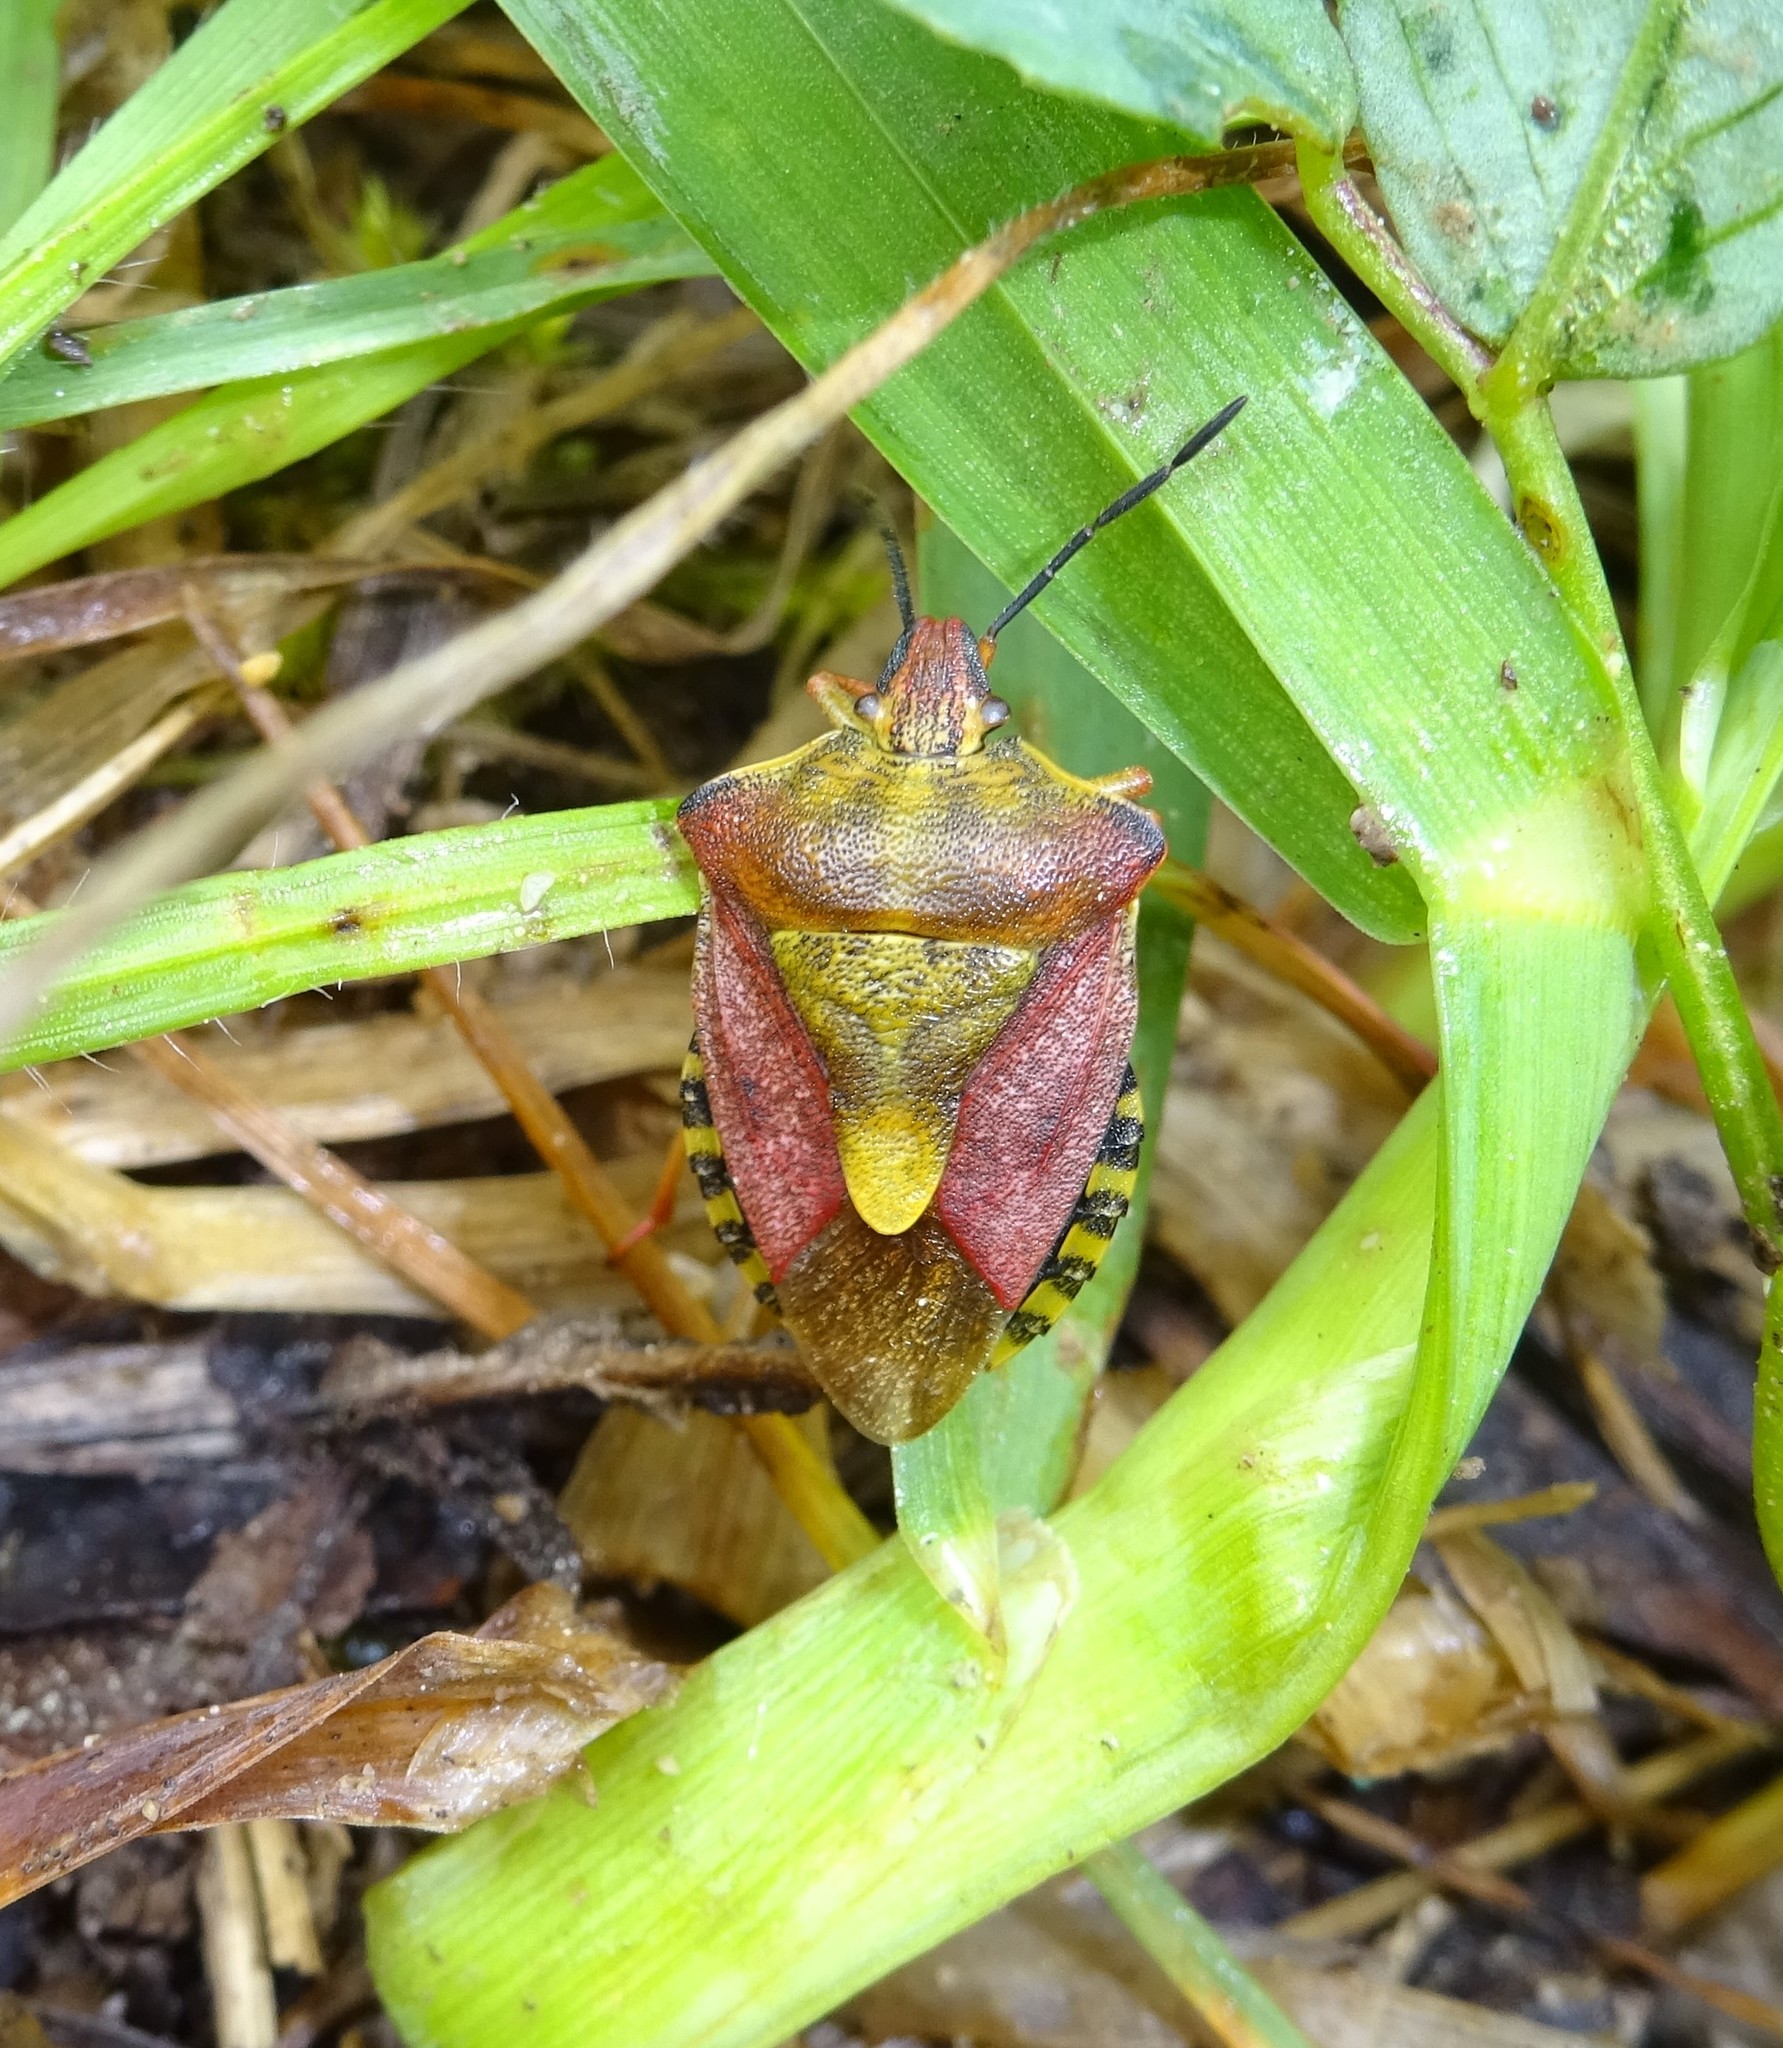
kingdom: Animalia
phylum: Arthropoda
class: Insecta
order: Hemiptera
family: Pentatomidae
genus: Carpocoris
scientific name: Carpocoris purpureipennis
